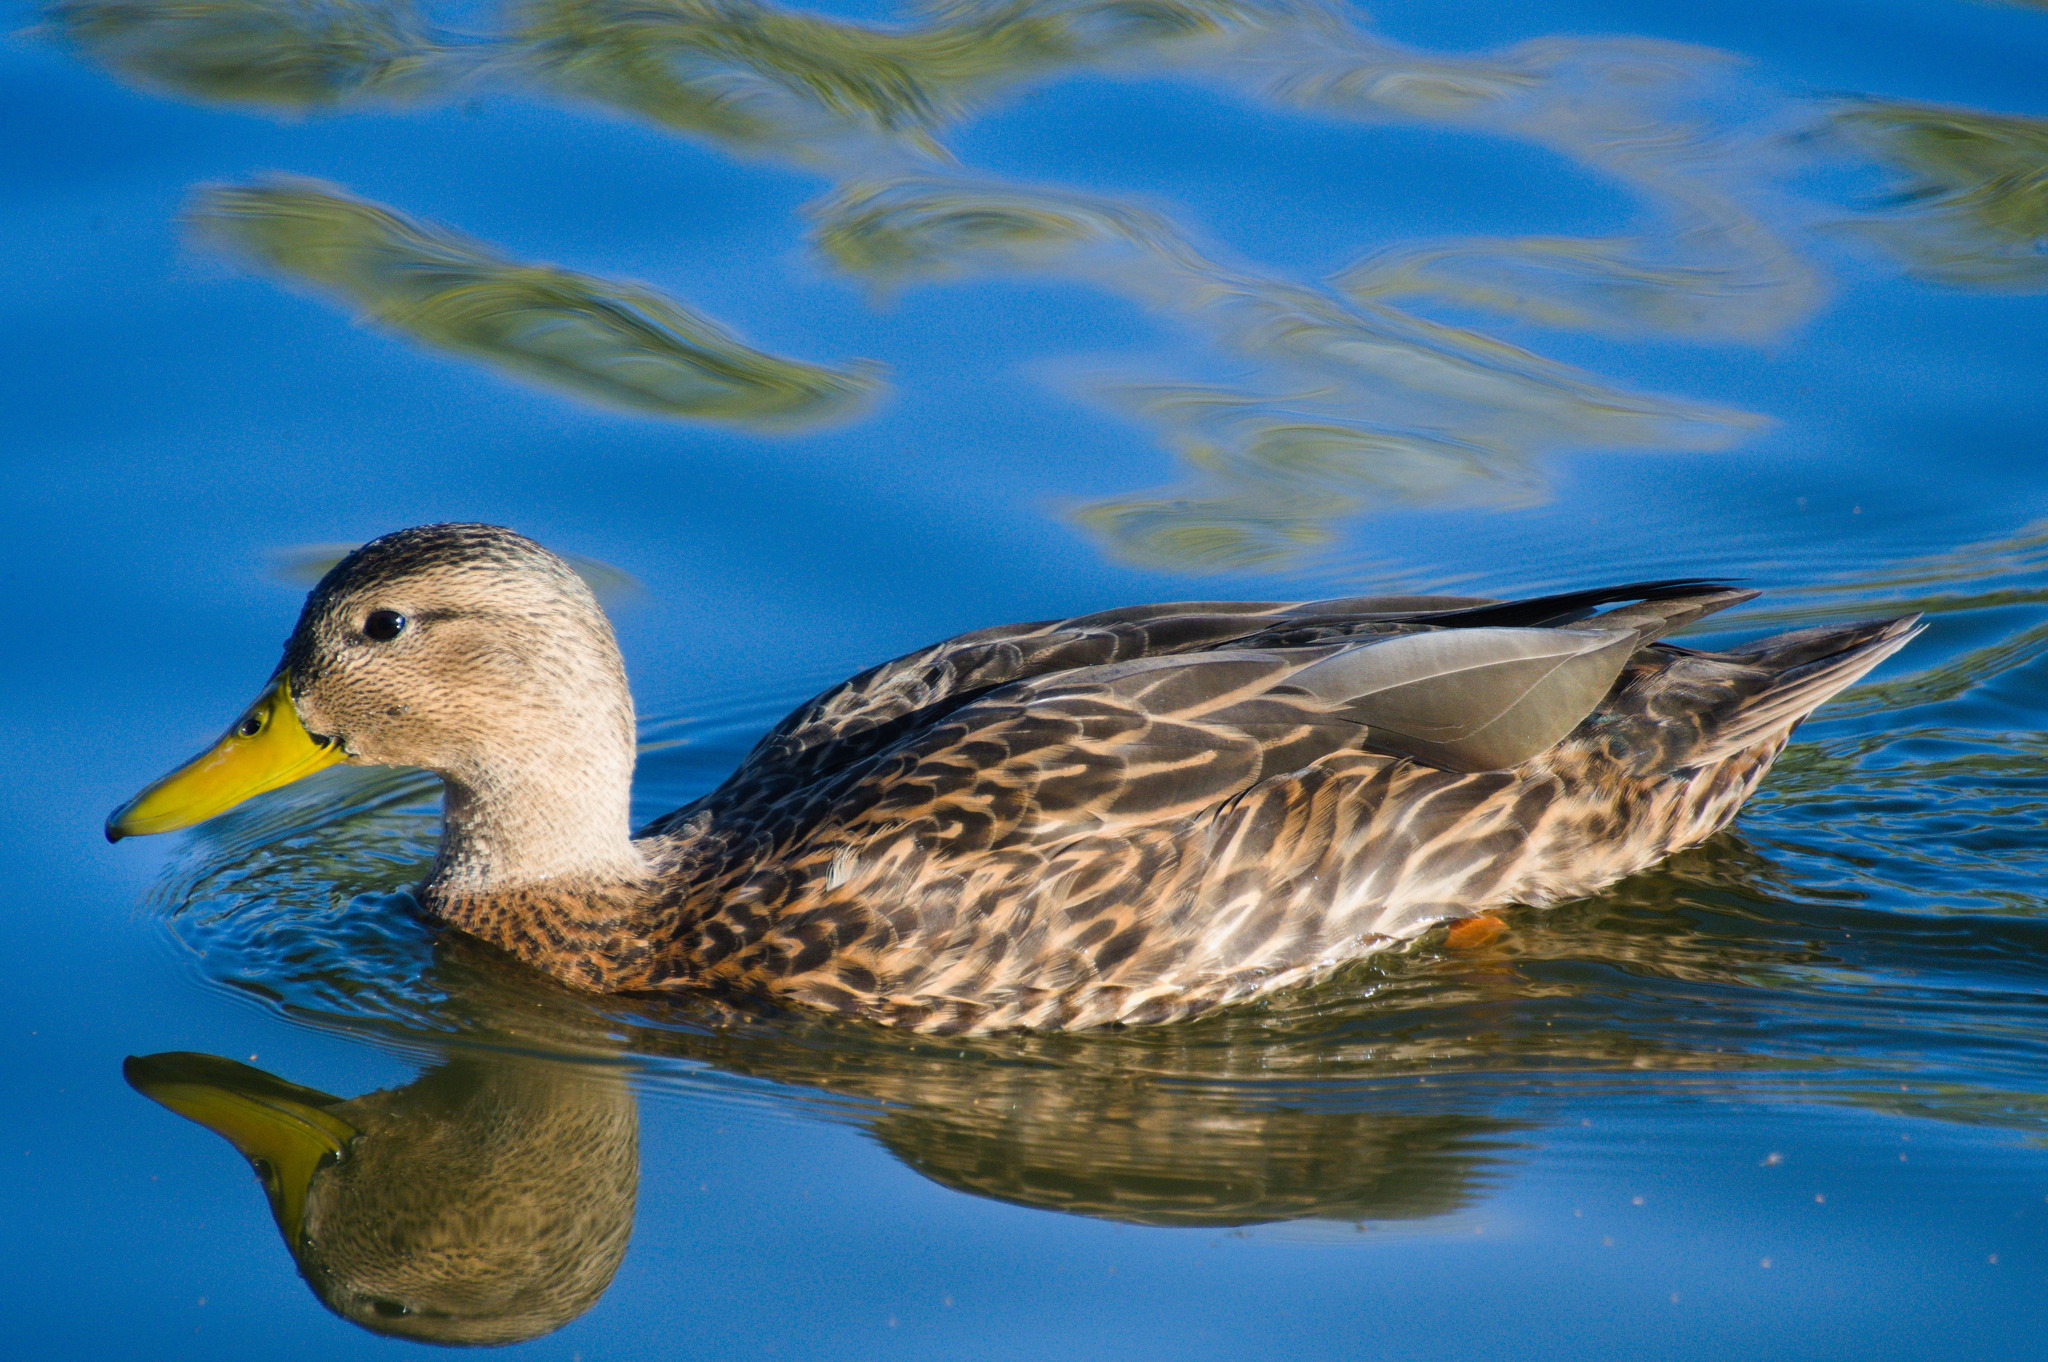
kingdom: Animalia
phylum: Chordata
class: Aves
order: Anseriformes
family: Anatidae
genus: Anas
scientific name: Anas diazi
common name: Mexican duck
